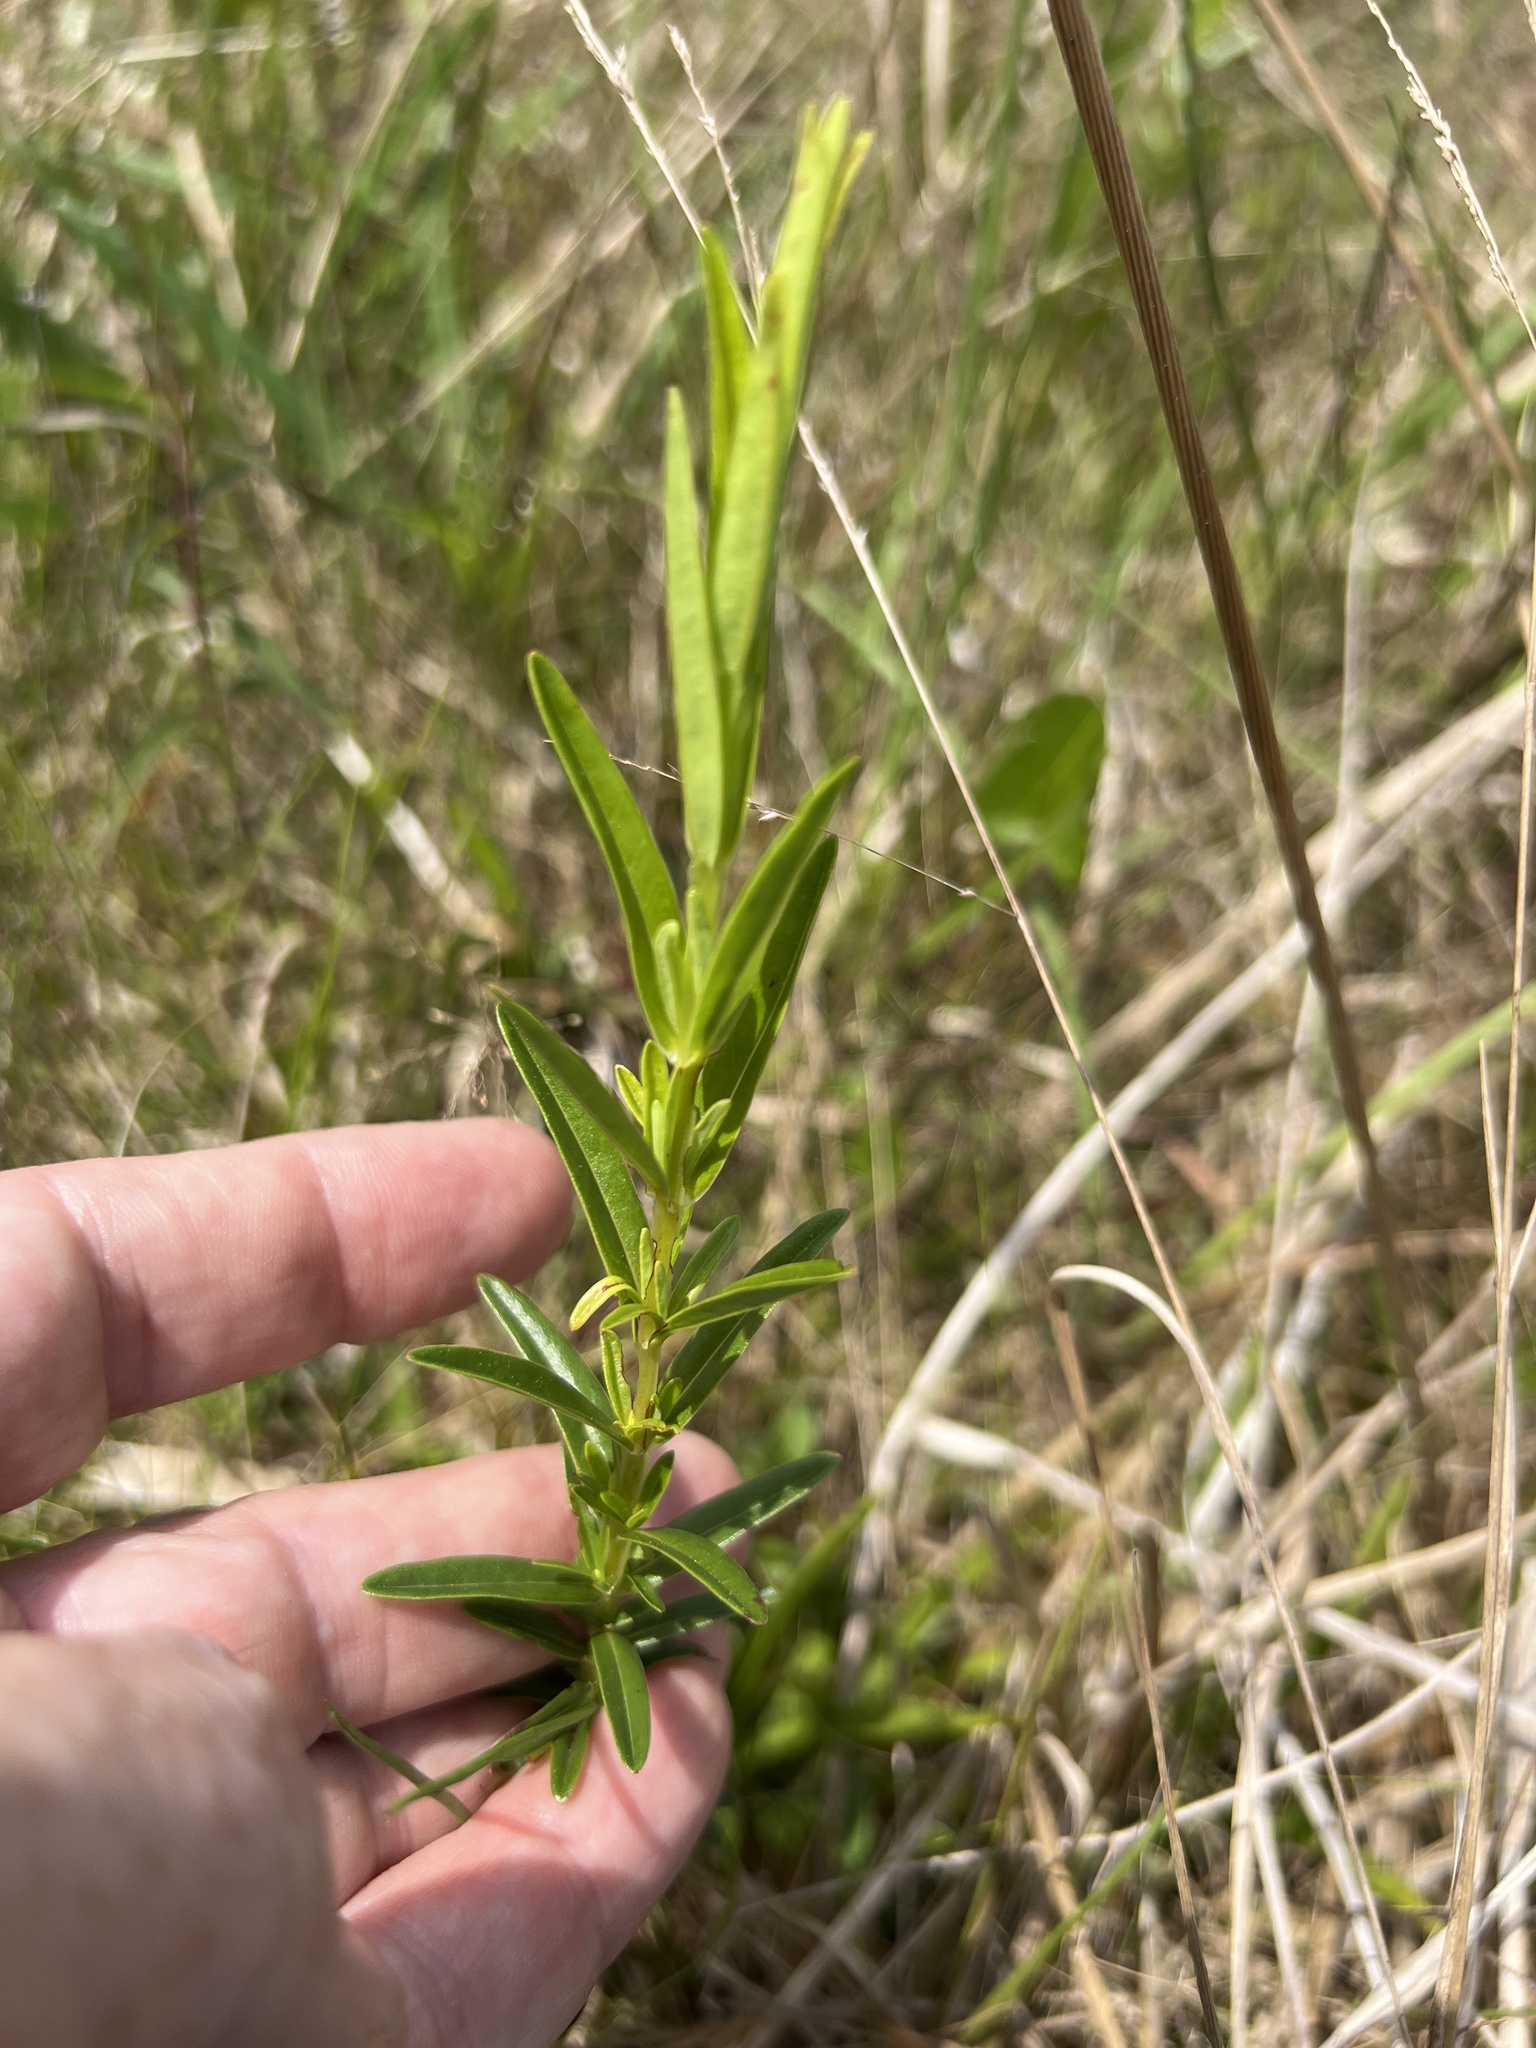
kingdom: Plantae
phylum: Tracheophyta
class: Magnoliopsida
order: Malpighiales
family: Hypericaceae
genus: Hypericum
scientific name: Hypericum cistifolium
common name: Round-pod st. john's-wort
